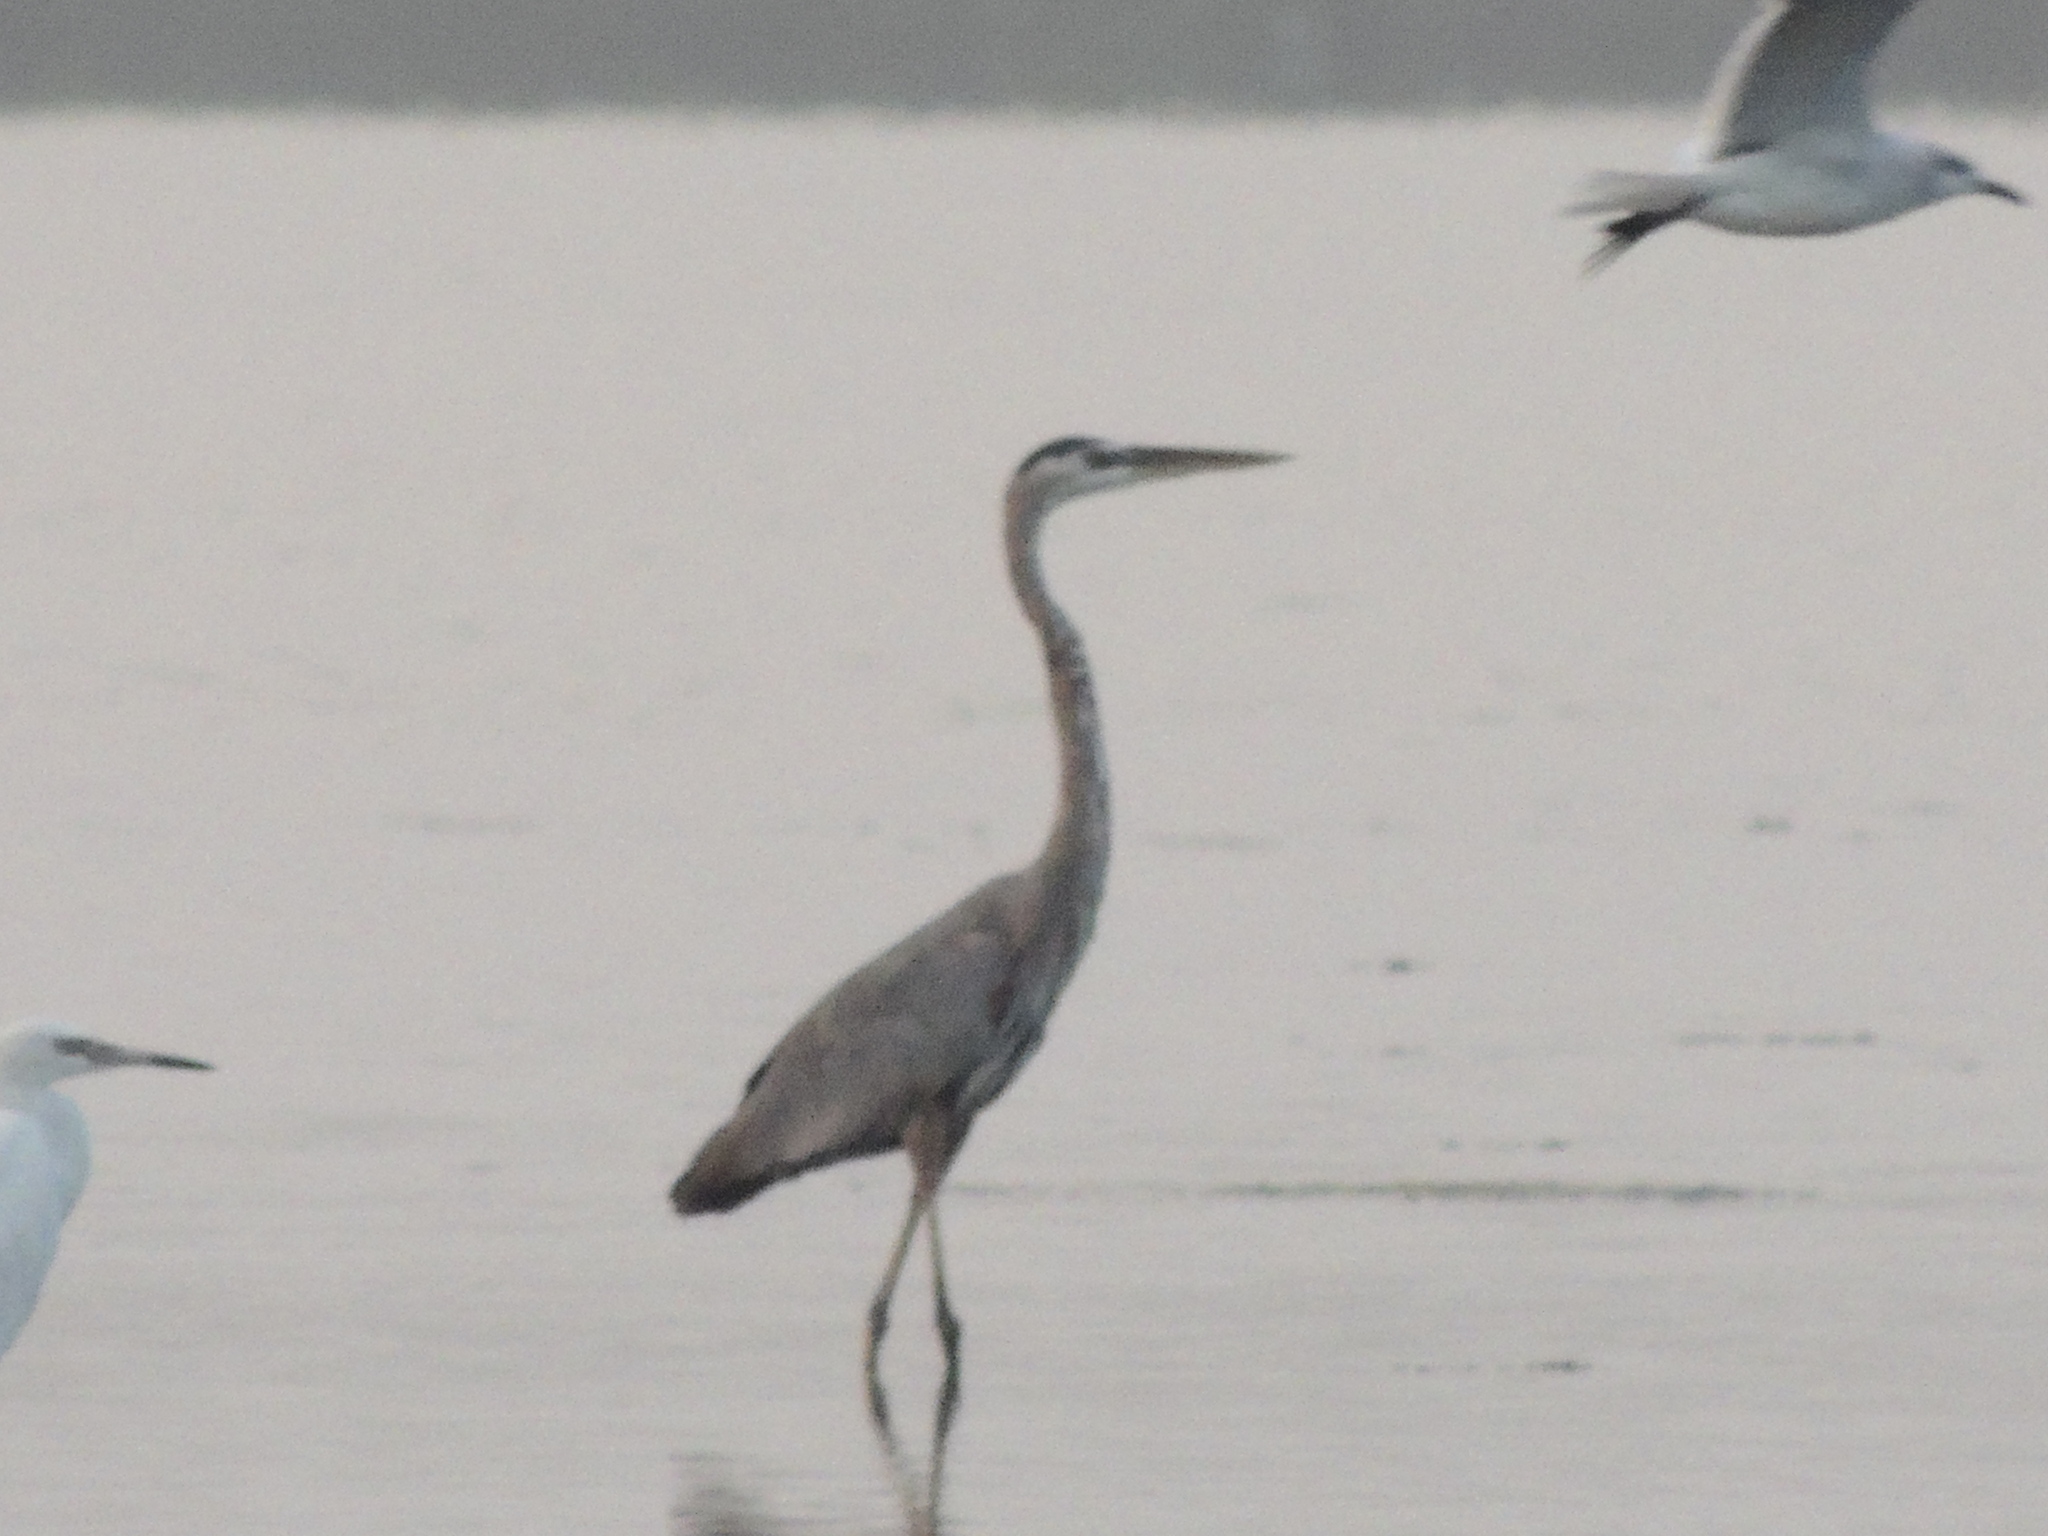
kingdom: Animalia
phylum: Chordata
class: Aves
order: Pelecaniformes
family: Ardeidae
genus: Ardea
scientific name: Ardea herodias
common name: Great blue heron
